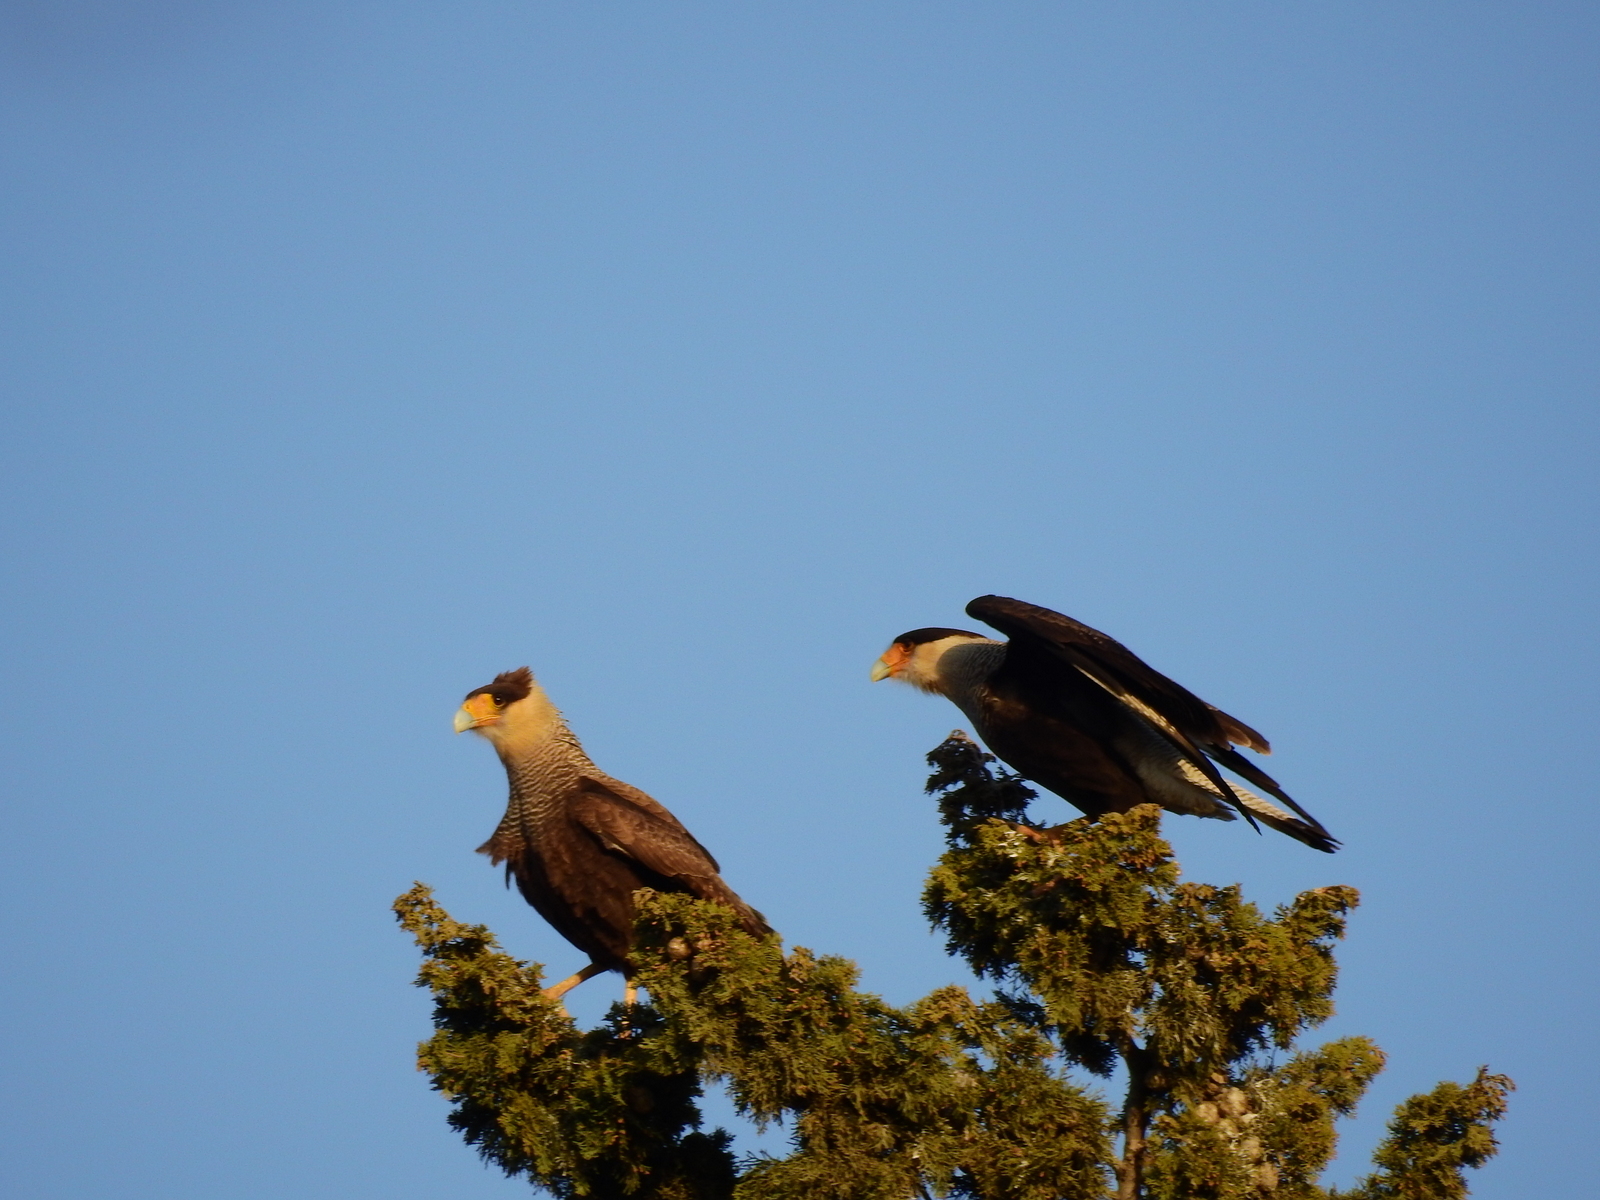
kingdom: Animalia
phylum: Chordata
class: Aves
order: Falconiformes
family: Falconidae
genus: Caracara
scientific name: Caracara plancus
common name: Southern caracara
